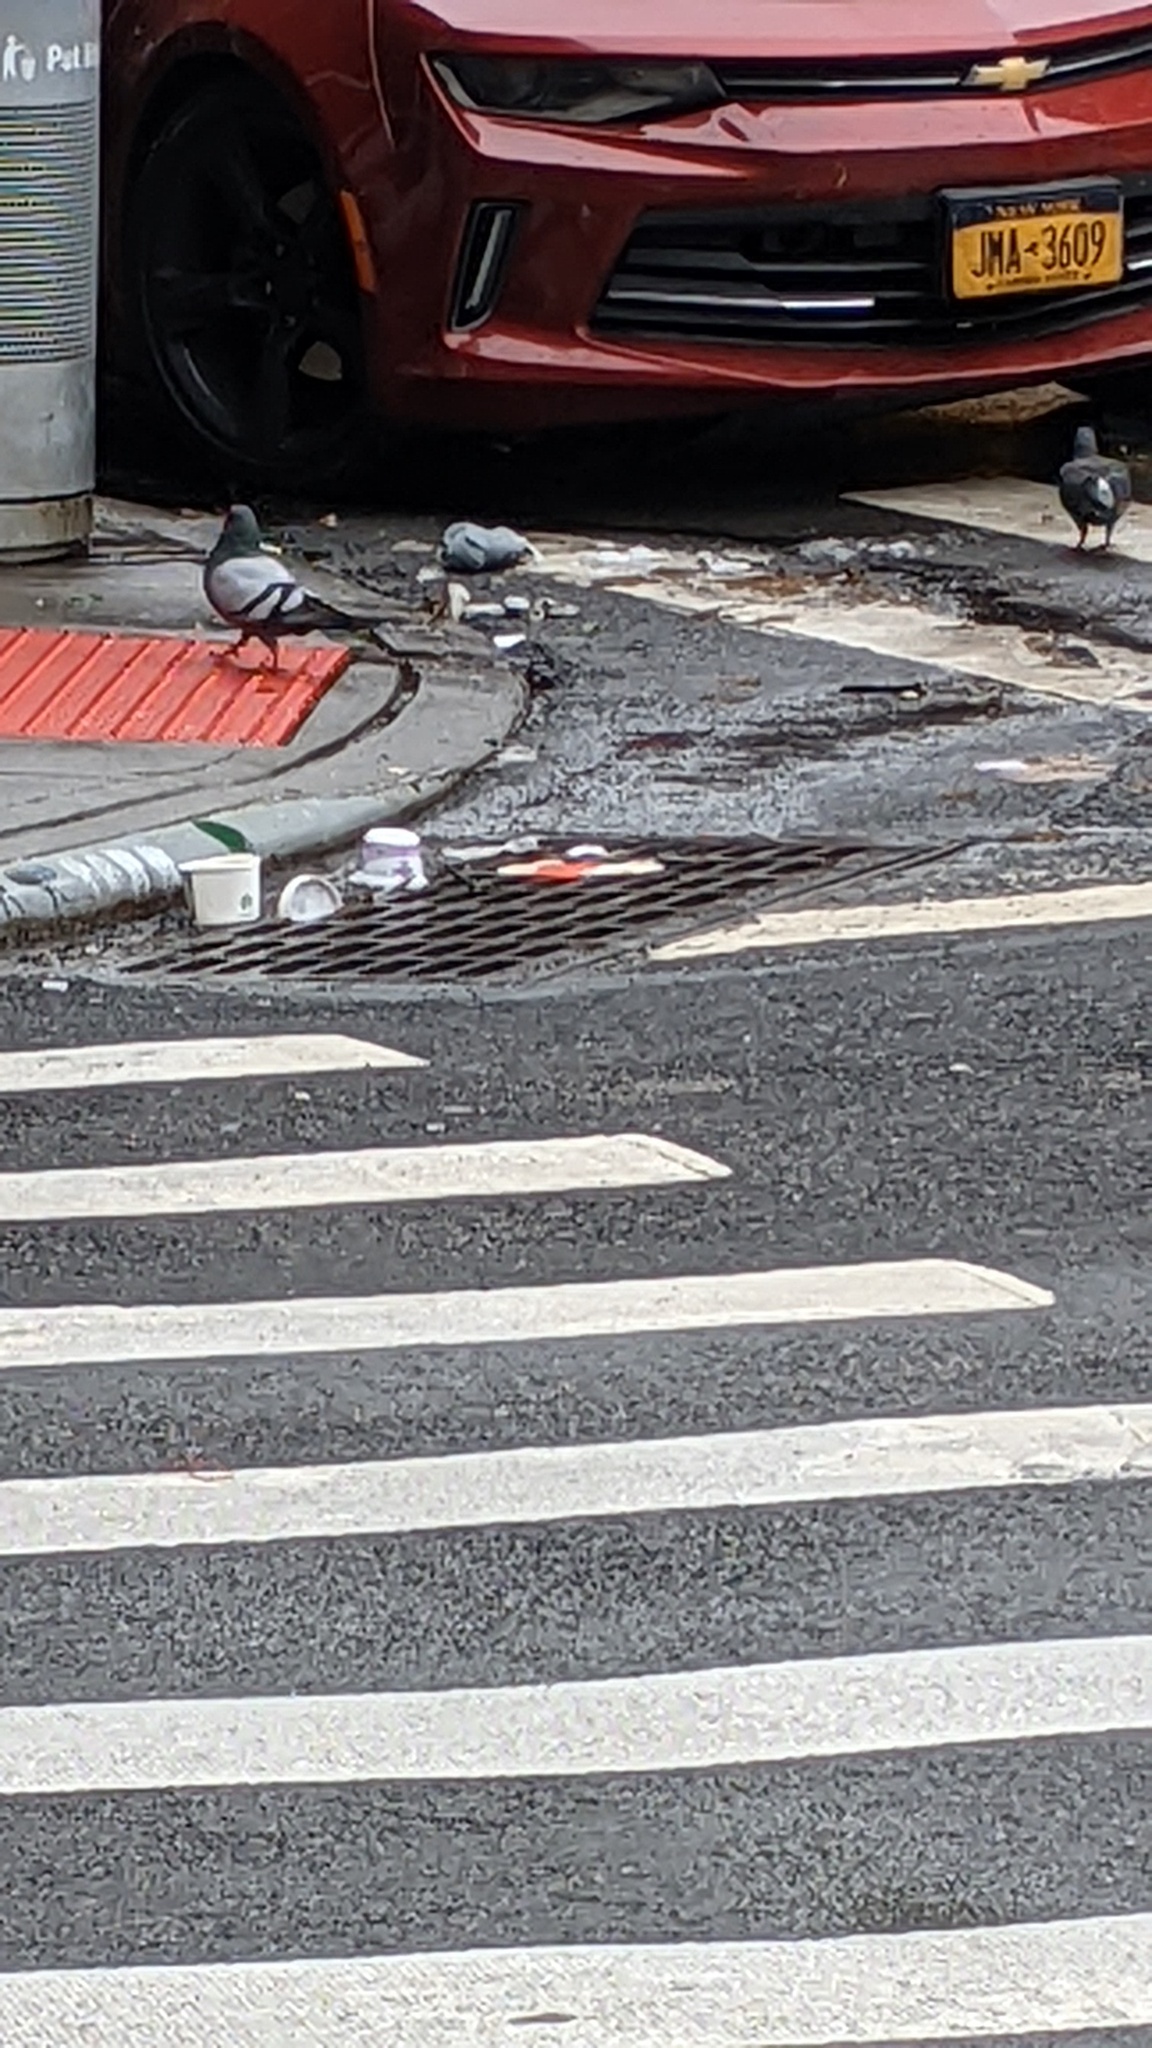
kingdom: Animalia
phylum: Chordata
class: Aves
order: Columbiformes
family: Columbidae
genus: Columba
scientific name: Columba livia
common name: Rock pigeon
